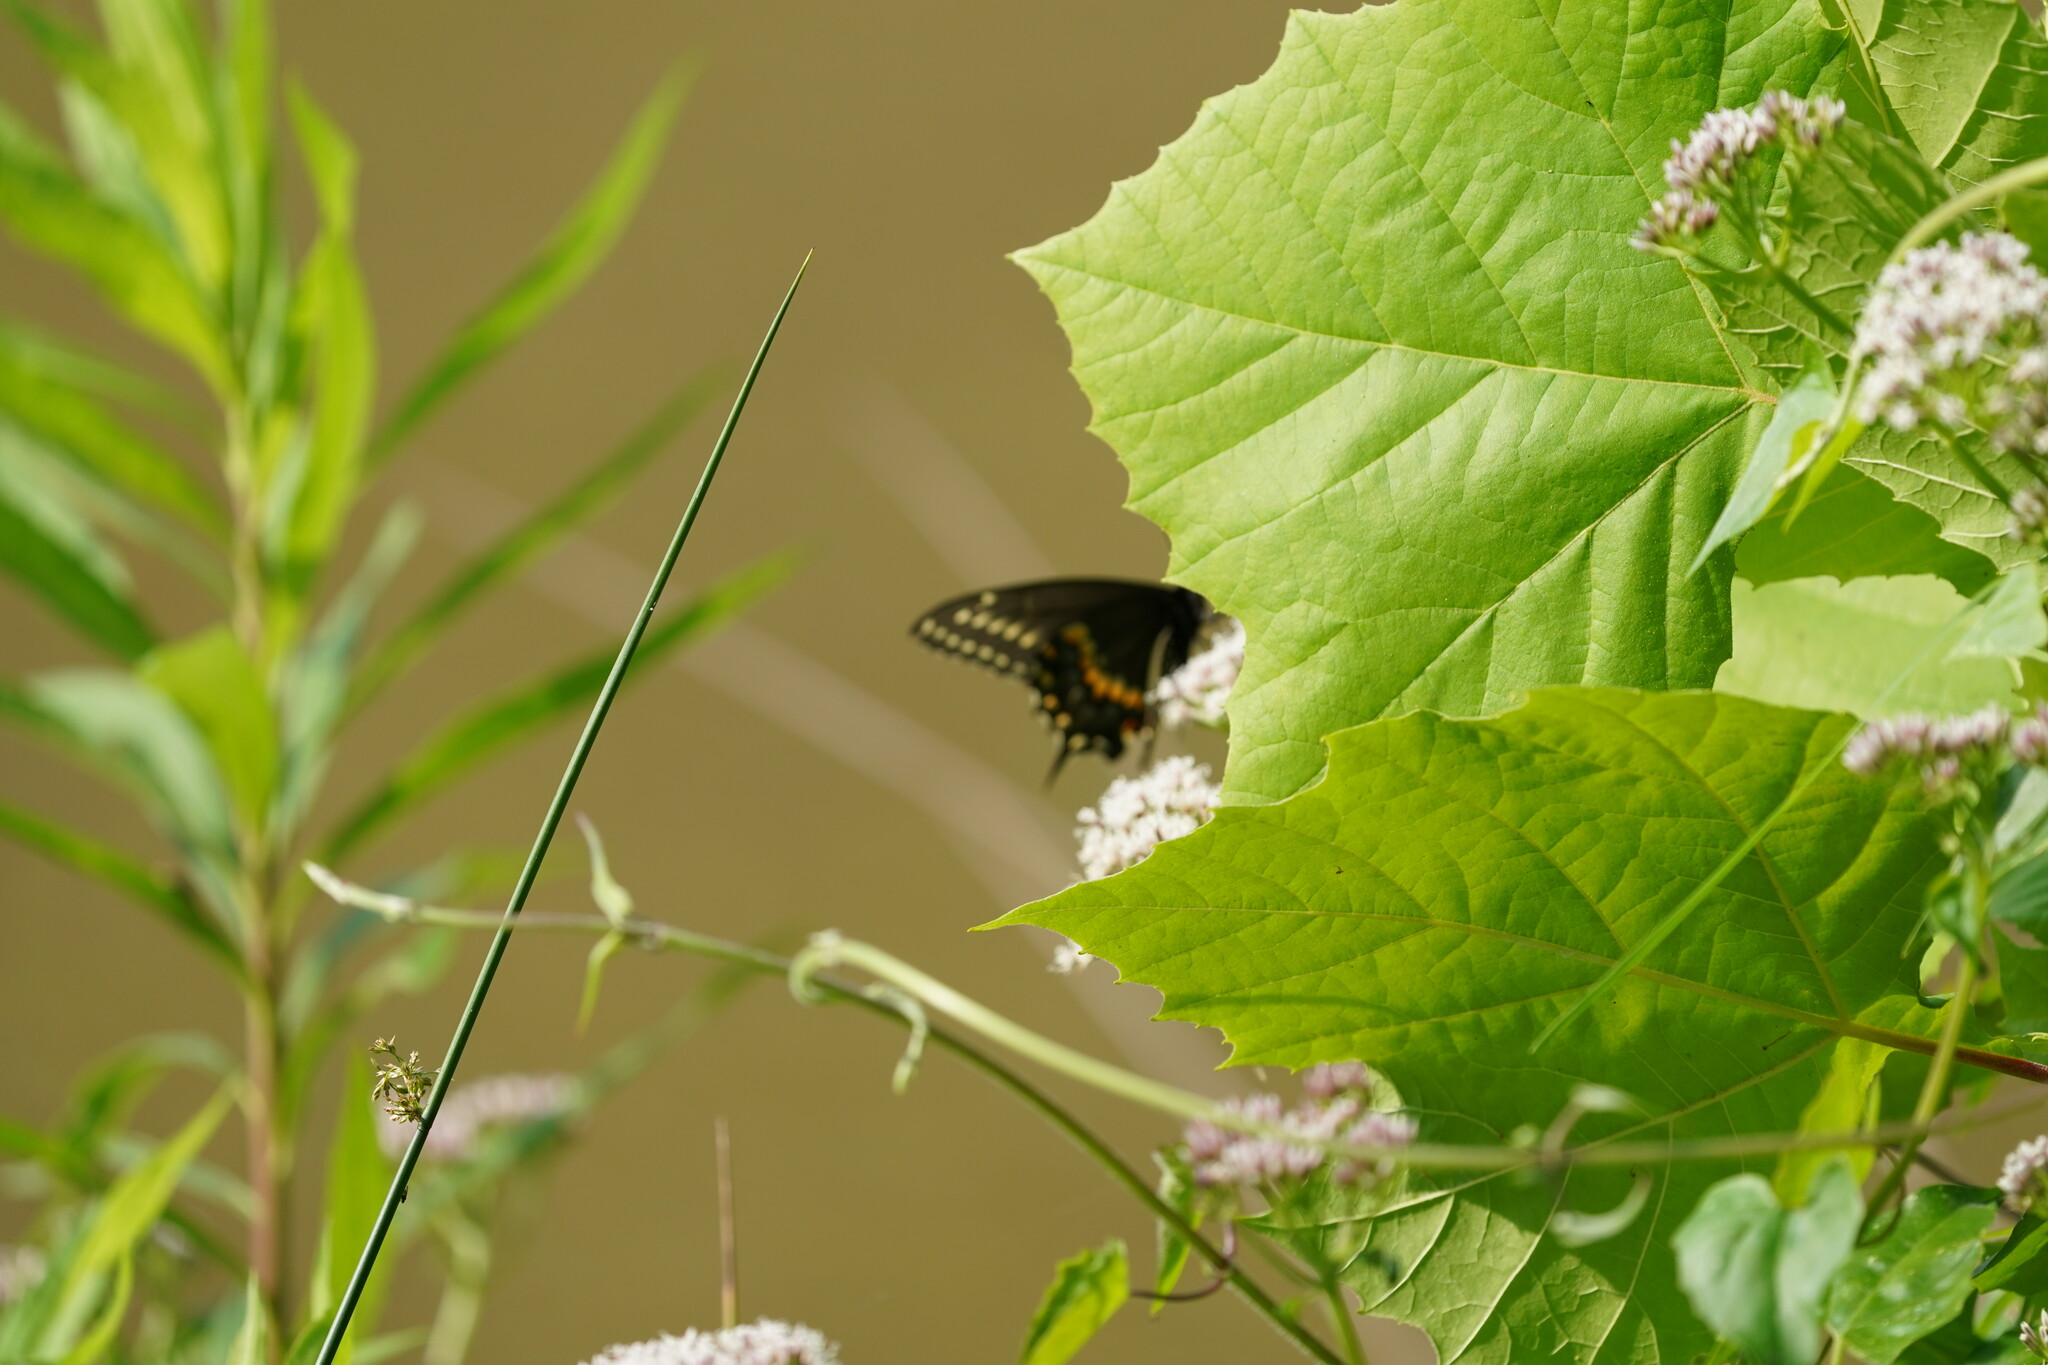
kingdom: Animalia
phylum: Arthropoda
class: Insecta
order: Lepidoptera
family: Papilionidae
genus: Papilio
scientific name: Papilio polyxenes
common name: Black swallowtail
